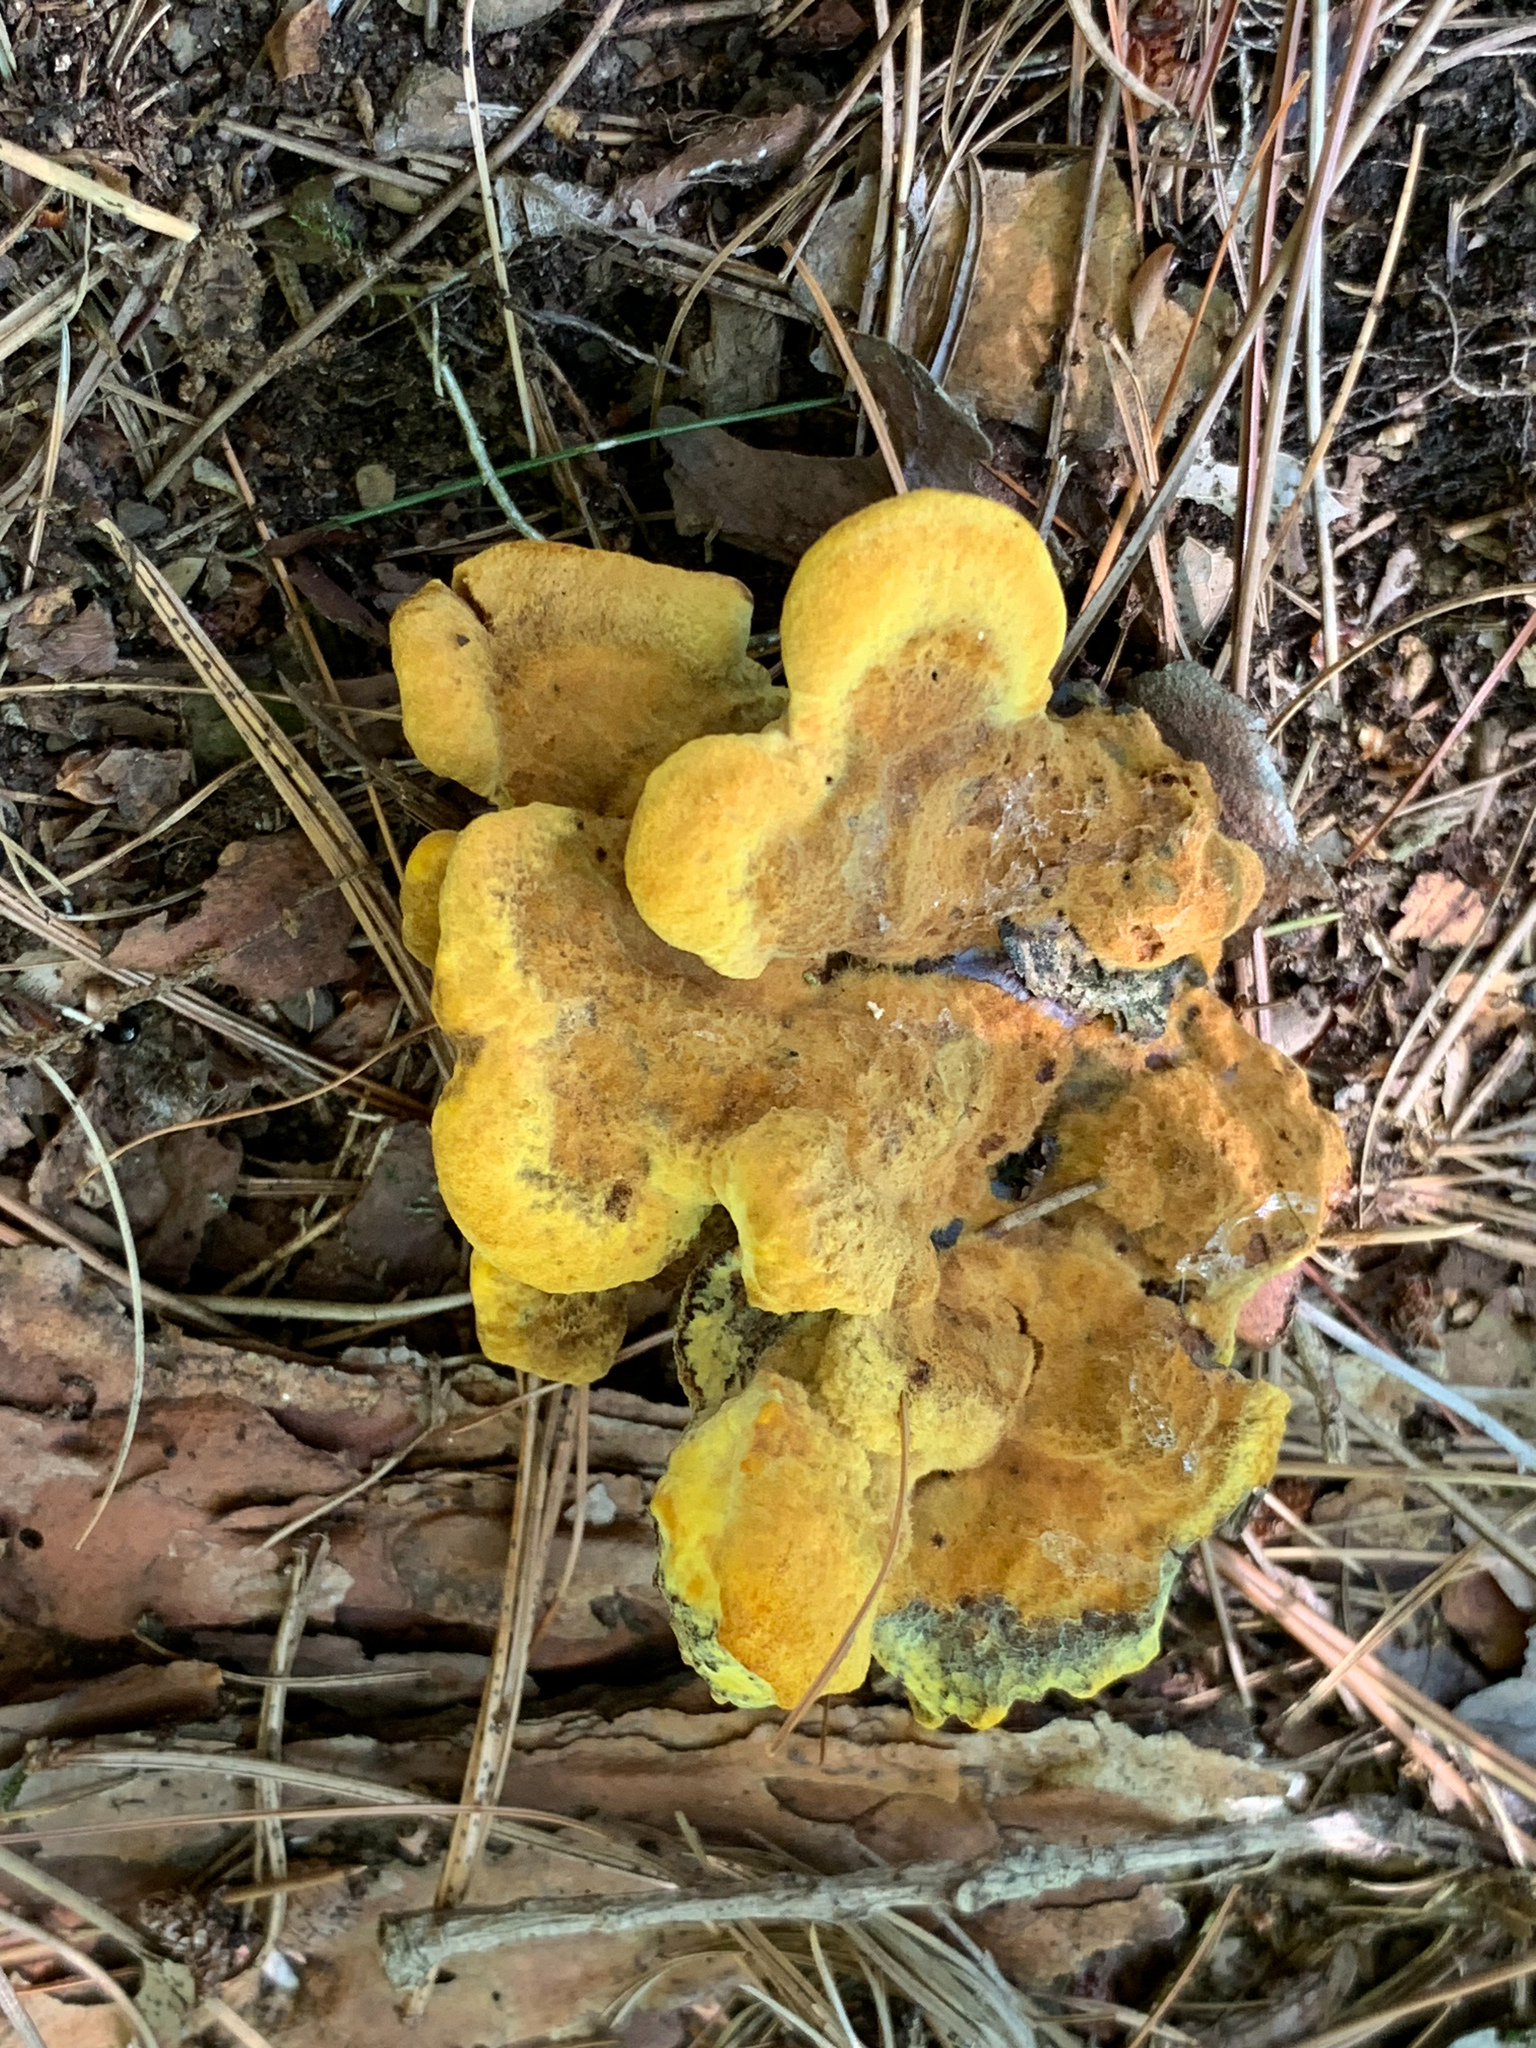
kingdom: Fungi
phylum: Basidiomycota
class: Agaricomycetes
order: Polyporales
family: Laetiporaceae
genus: Phaeolus
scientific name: Phaeolus schweinitzii
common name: Dyer's mazegill
